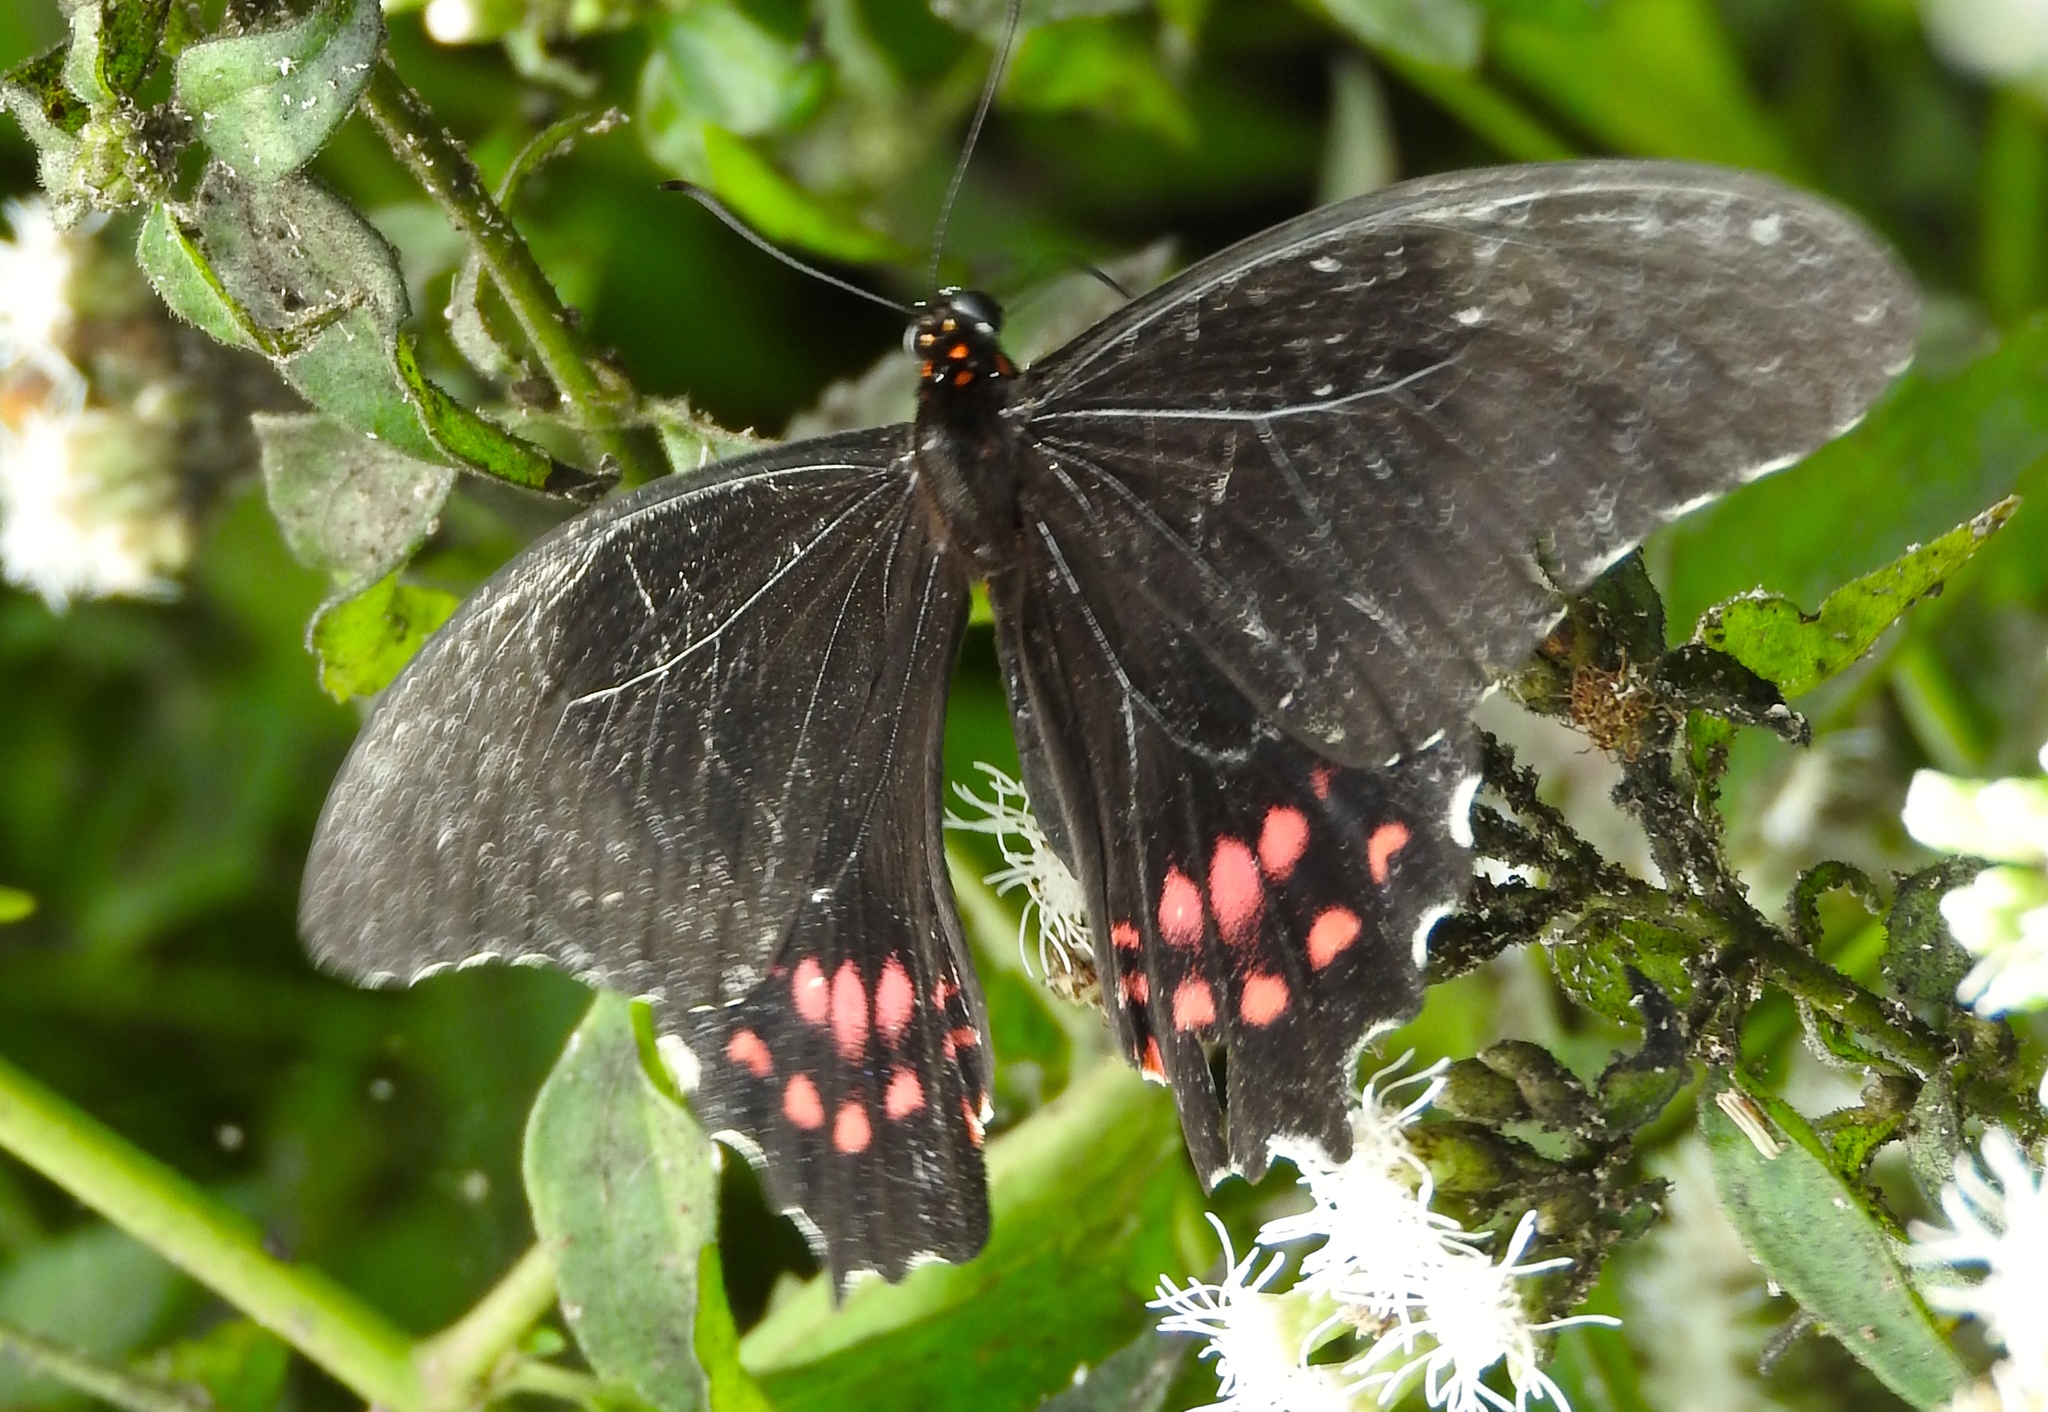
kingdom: Animalia
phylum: Arthropoda
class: Insecta
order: Lepidoptera
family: Papilionidae
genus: Heraclides
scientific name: Heraclides rogeri
